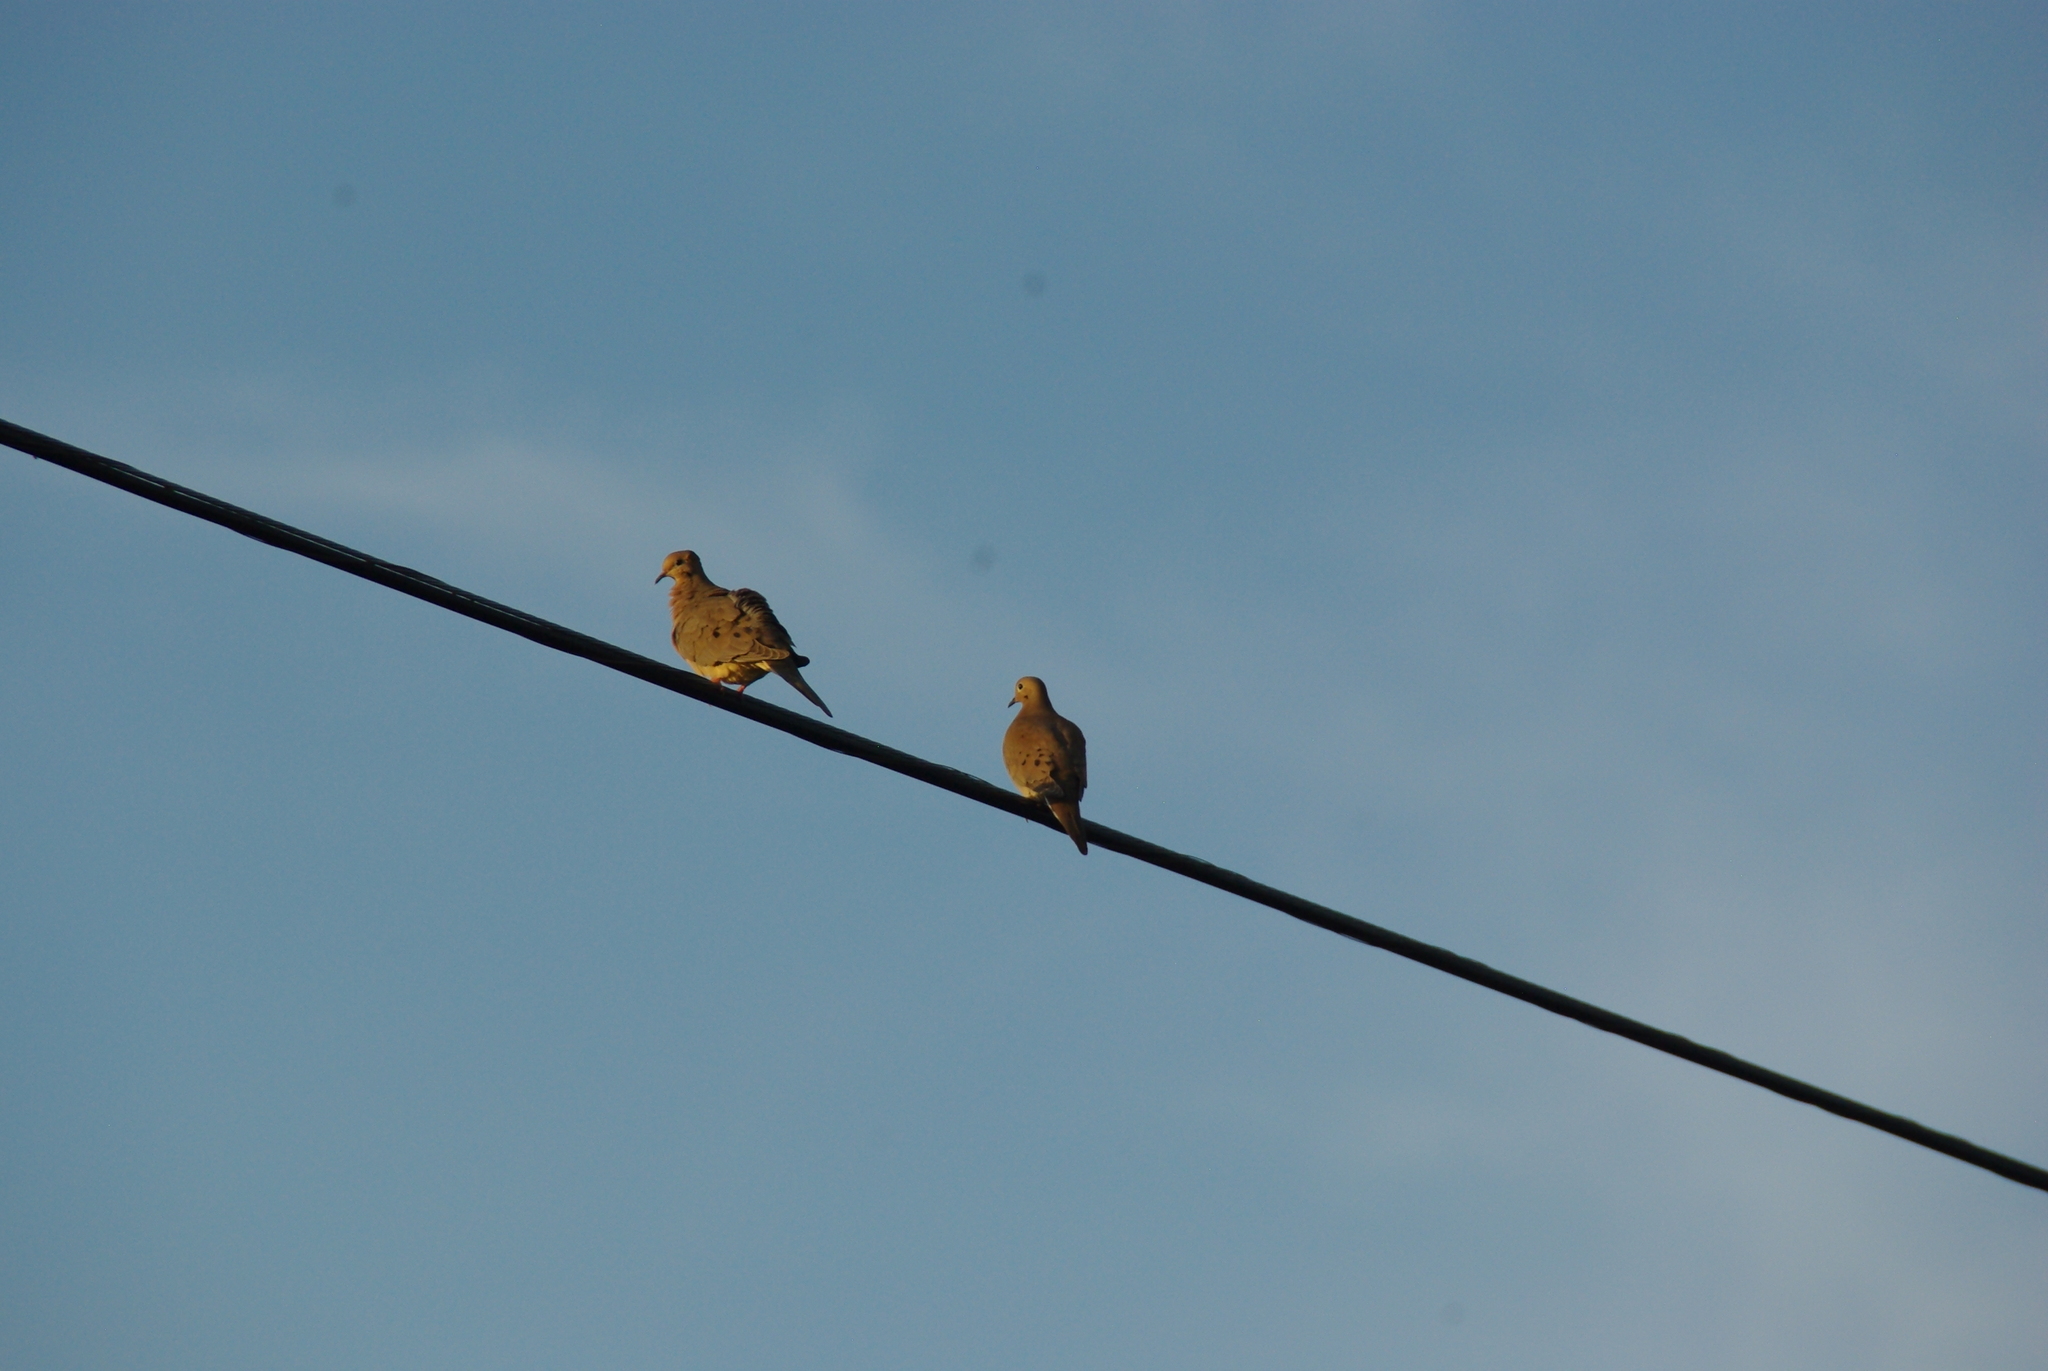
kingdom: Animalia
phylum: Chordata
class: Aves
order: Columbiformes
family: Columbidae
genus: Zenaida
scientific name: Zenaida macroura
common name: Mourning dove
